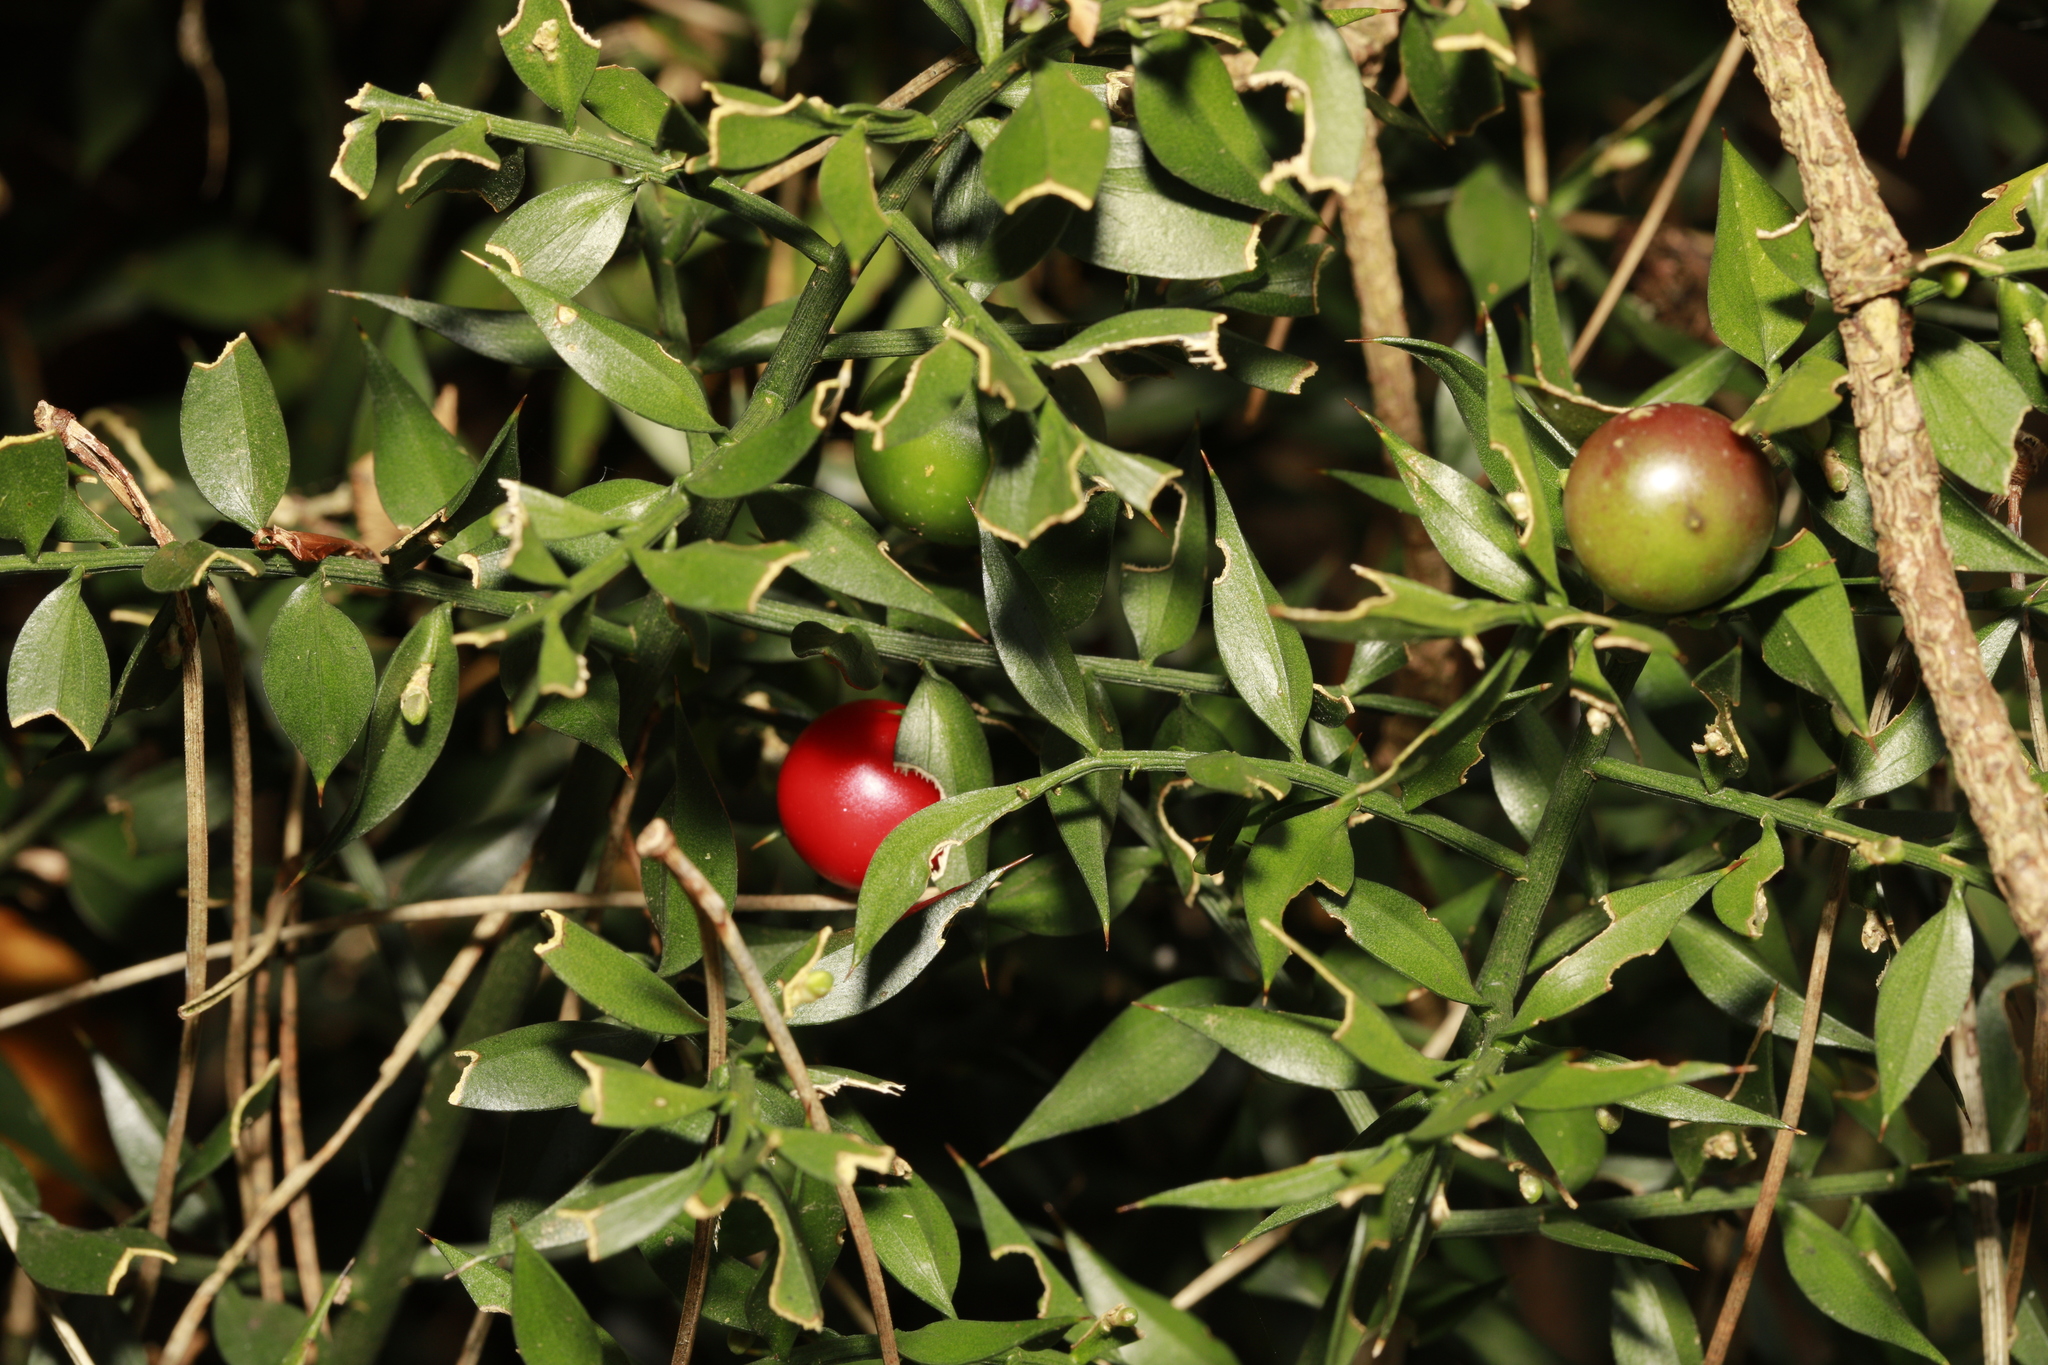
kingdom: Plantae
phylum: Tracheophyta
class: Liliopsida
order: Asparagales
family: Asparagaceae
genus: Ruscus
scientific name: Ruscus aculeatus
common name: Butcher's-broom
